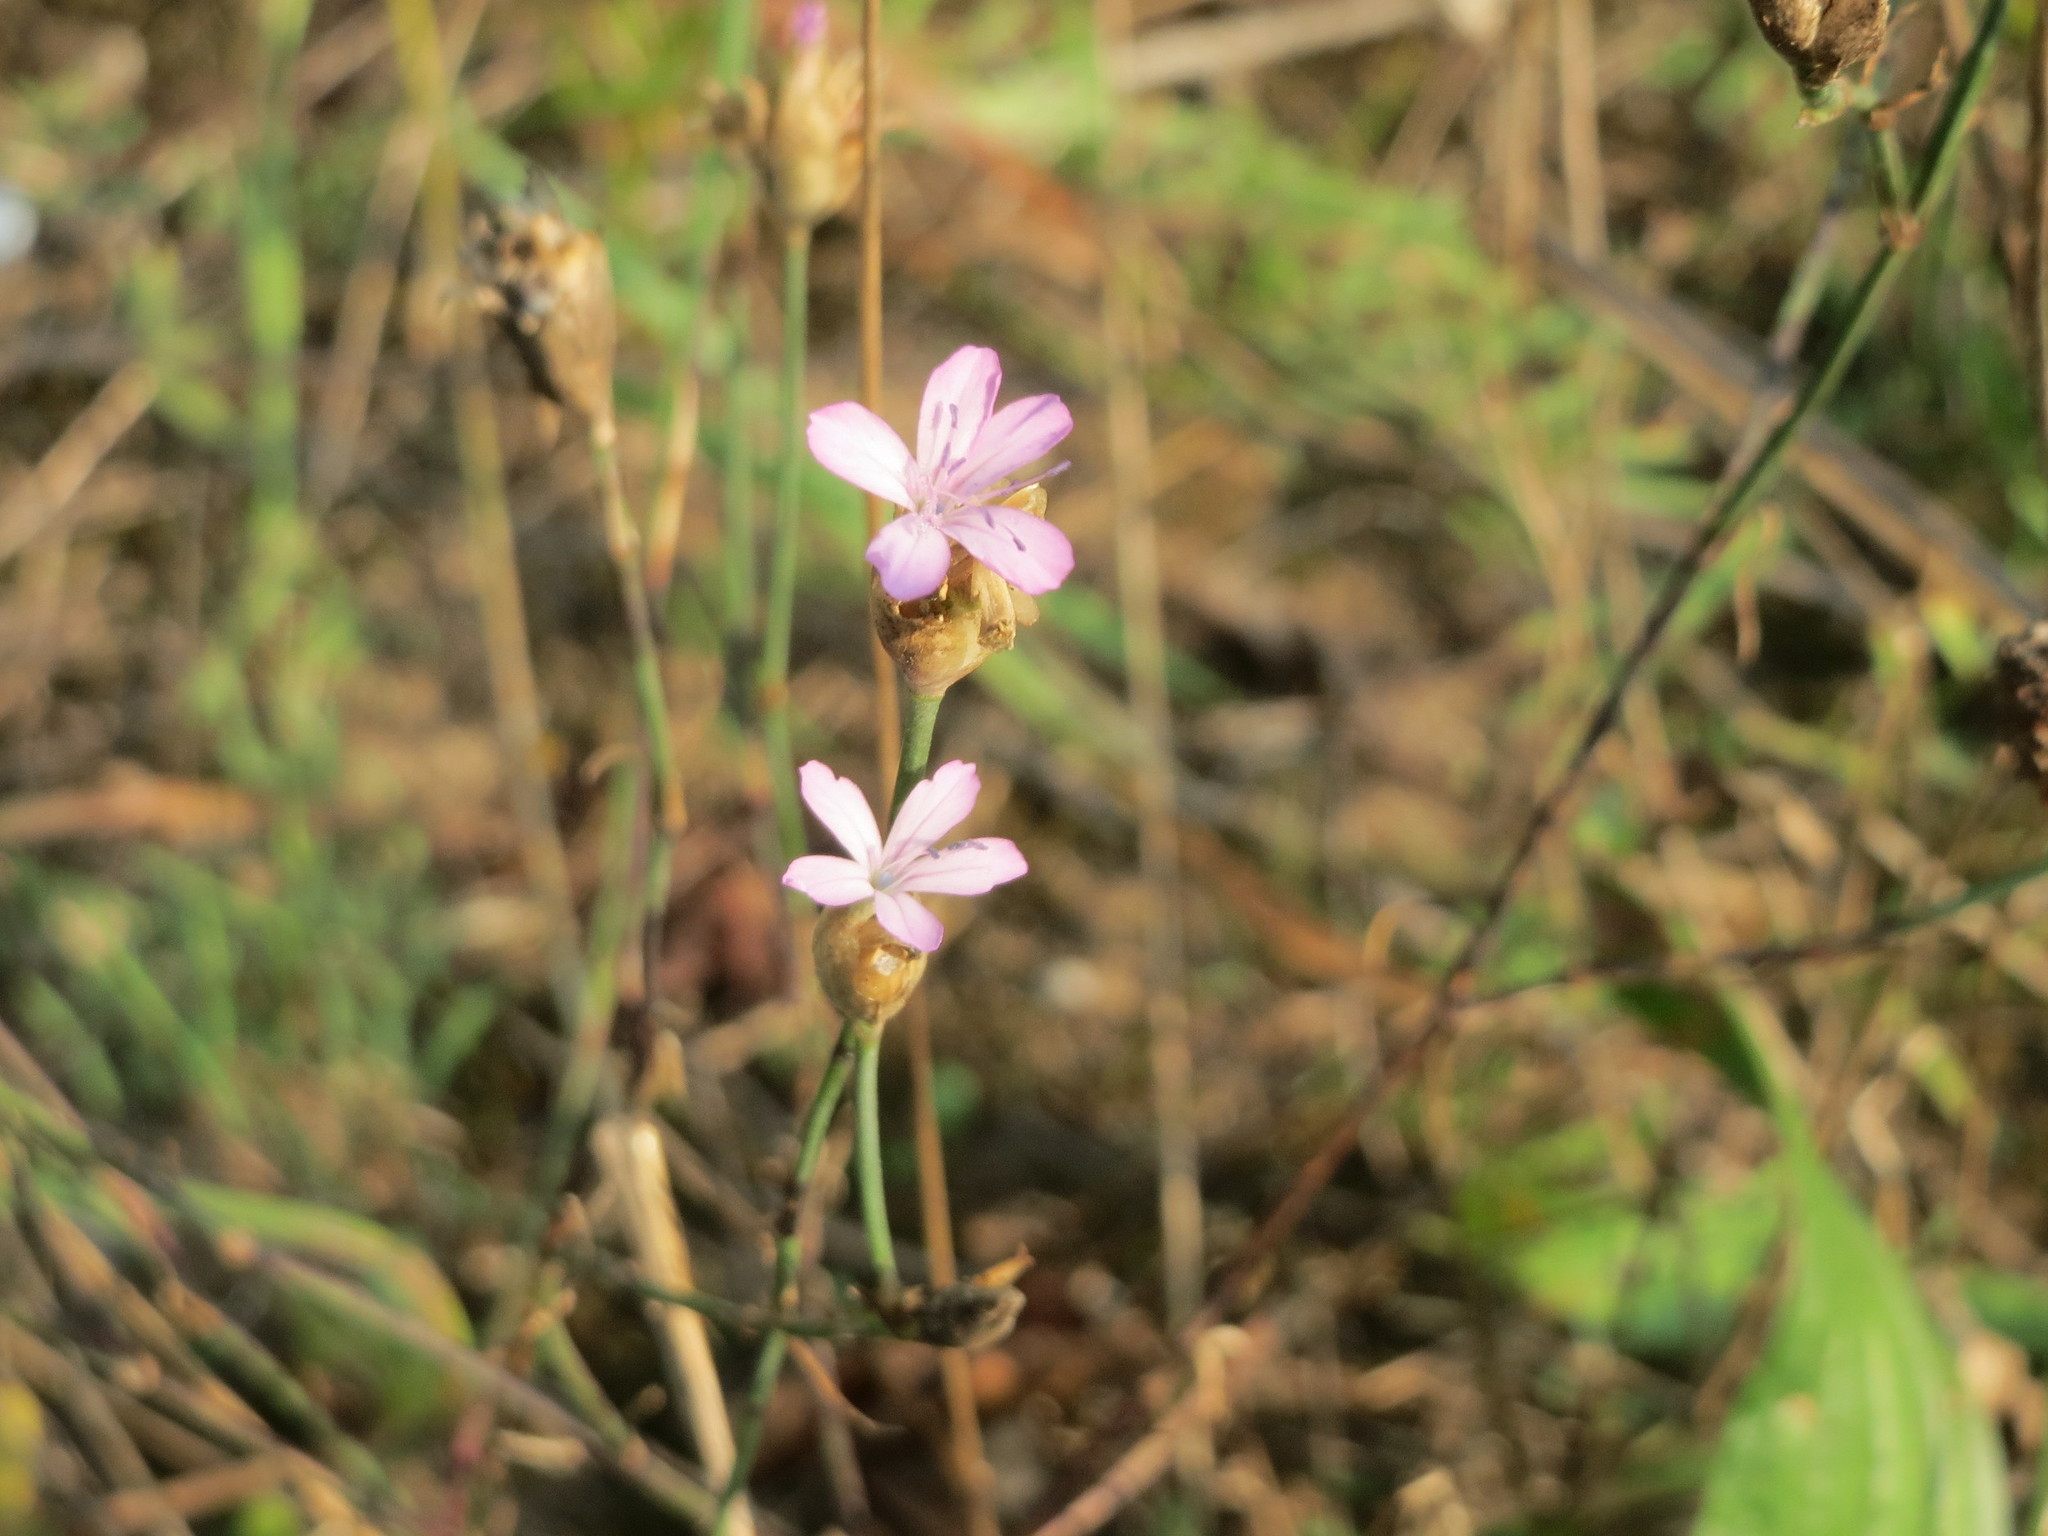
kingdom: Plantae
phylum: Tracheophyta
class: Magnoliopsida
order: Caryophyllales
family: Caryophyllaceae
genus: Petrorhagia
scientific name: Petrorhagia prolifera
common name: Proliferous pink
